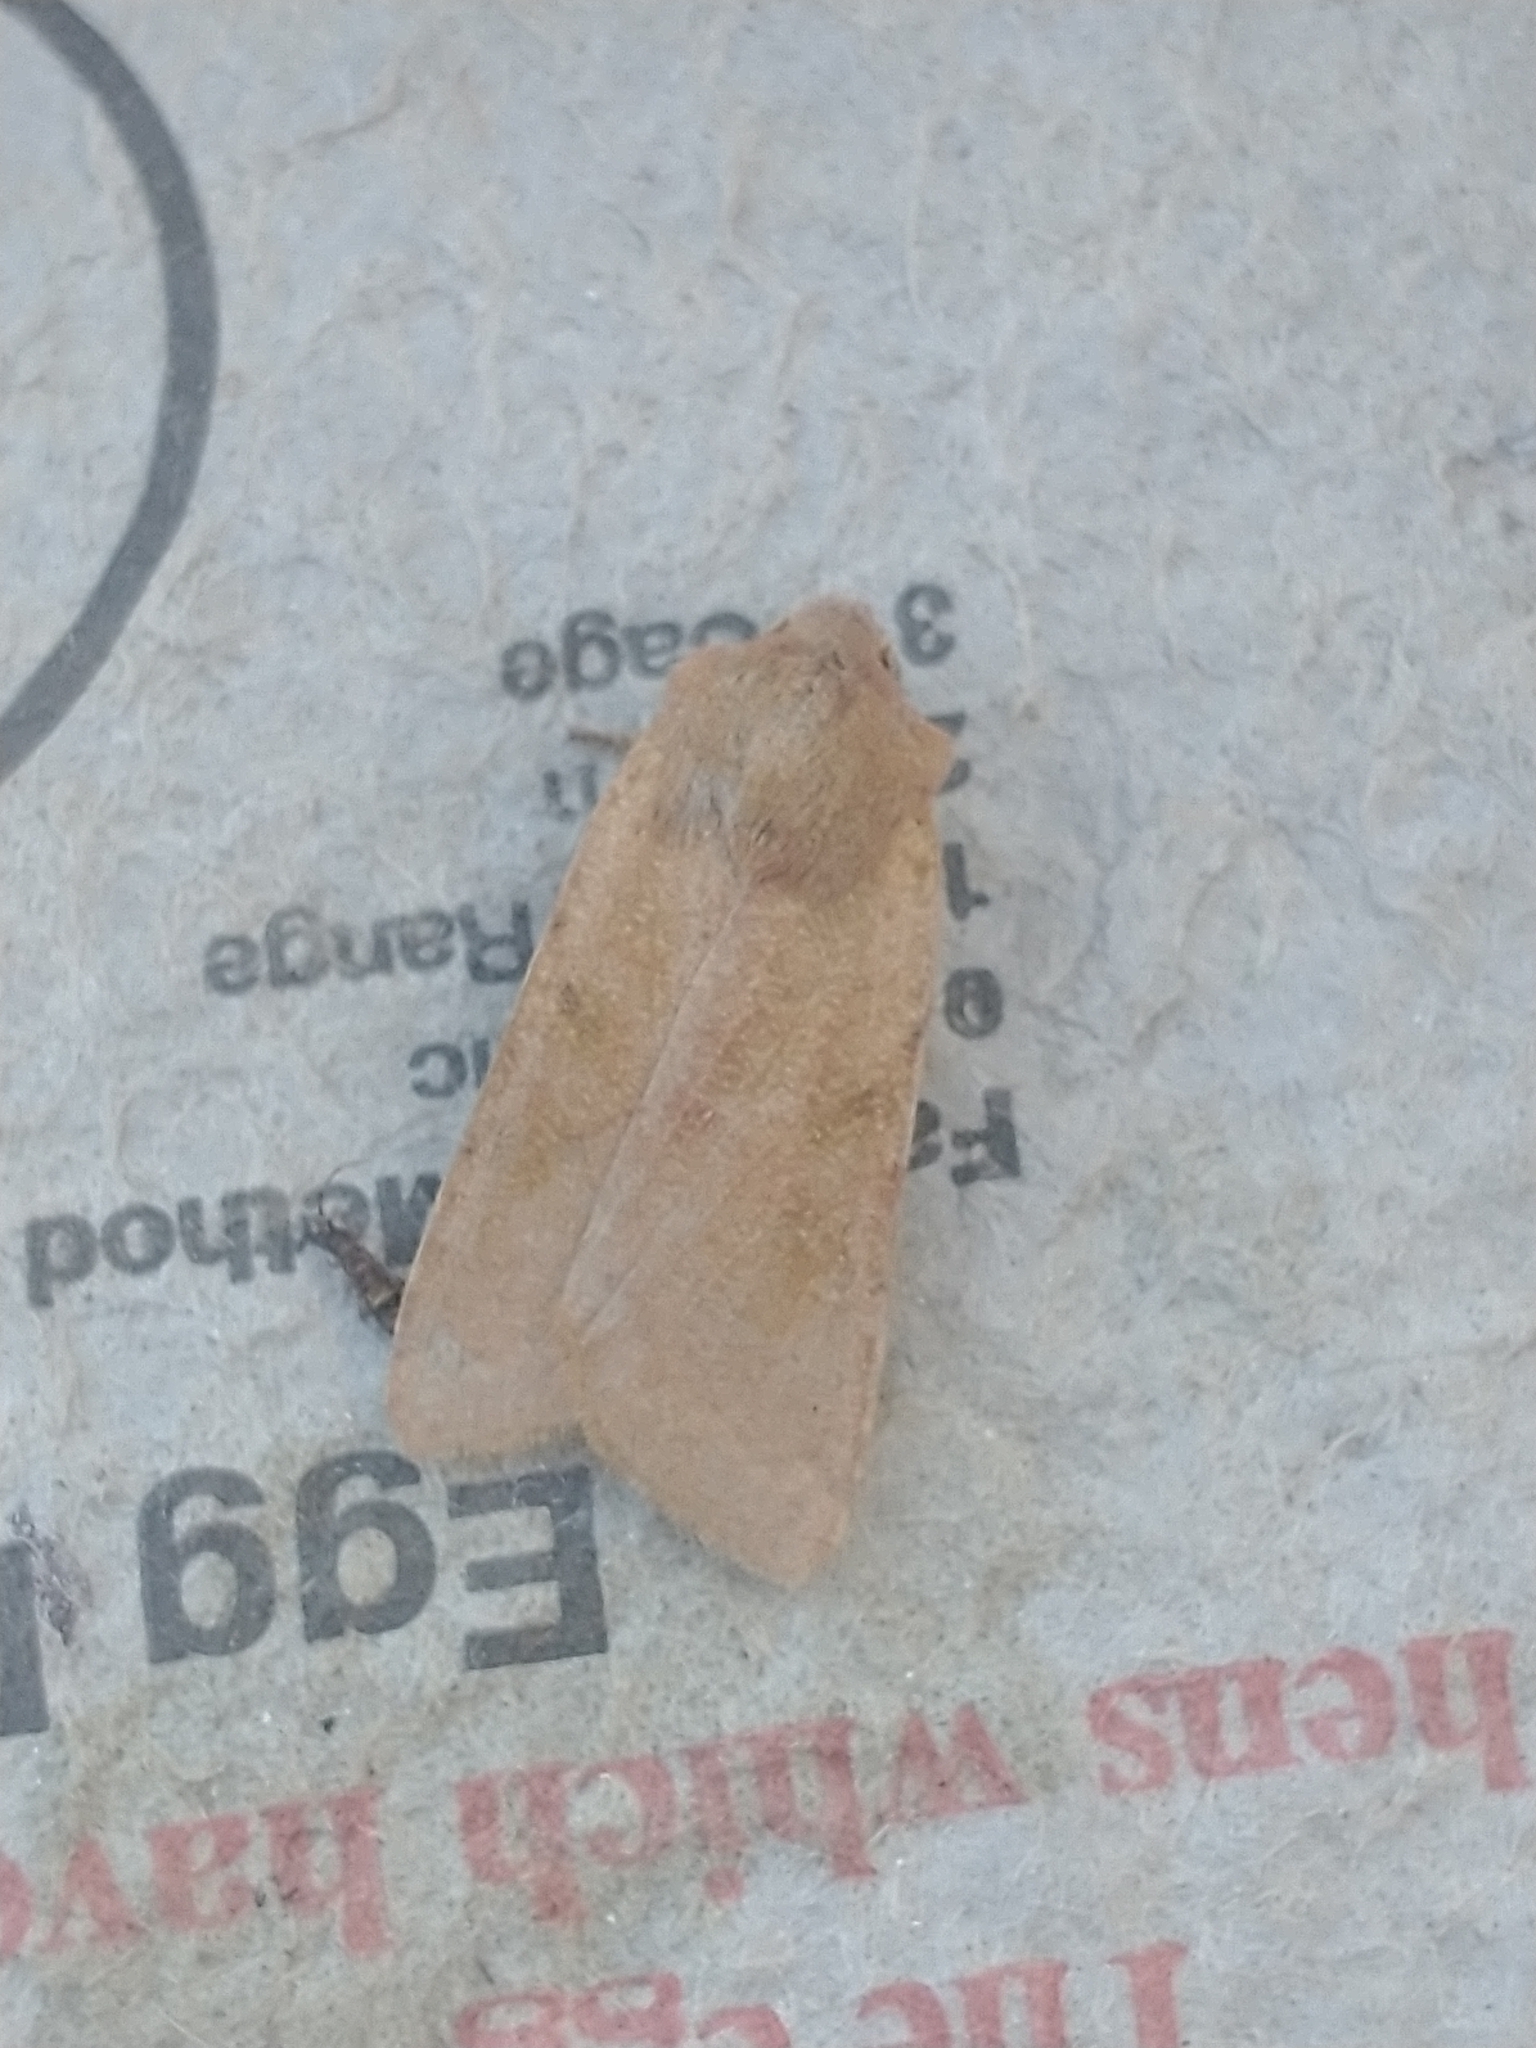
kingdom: Animalia
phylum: Arthropoda
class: Insecta
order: Lepidoptera
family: Noctuidae
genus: Agrochola
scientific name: Agrochola lychnidis
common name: Beaded chestnut
